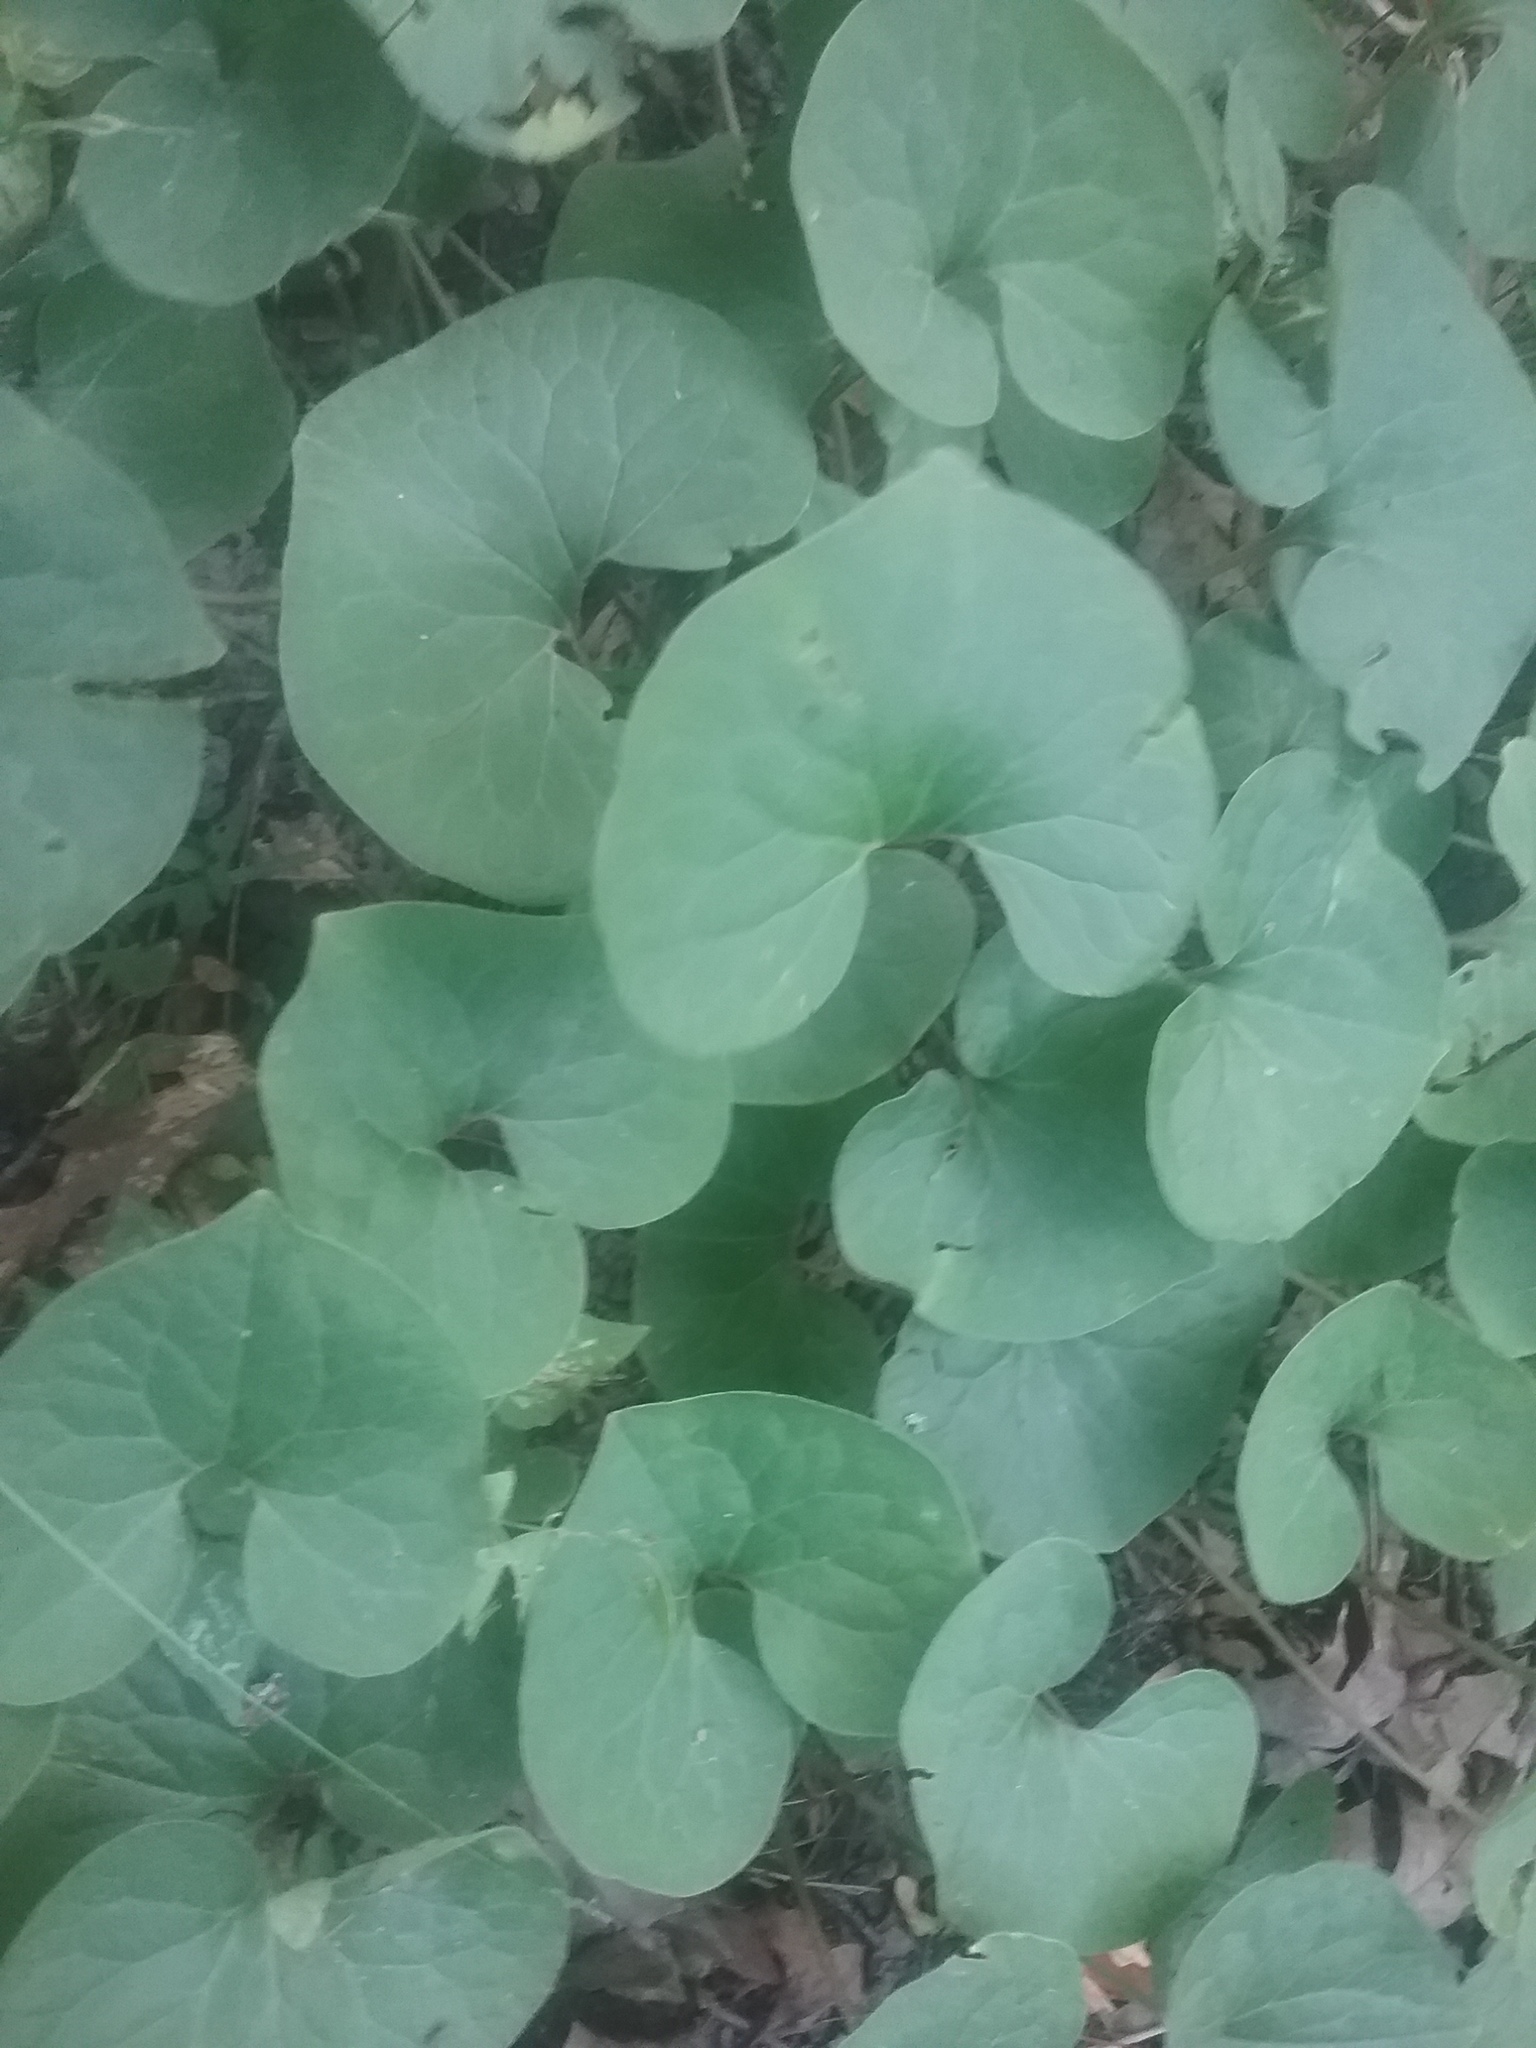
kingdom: Plantae
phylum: Tracheophyta
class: Magnoliopsida
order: Piperales
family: Aristolochiaceae
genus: Asarum
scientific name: Asarum canadense
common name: Wild ginger
